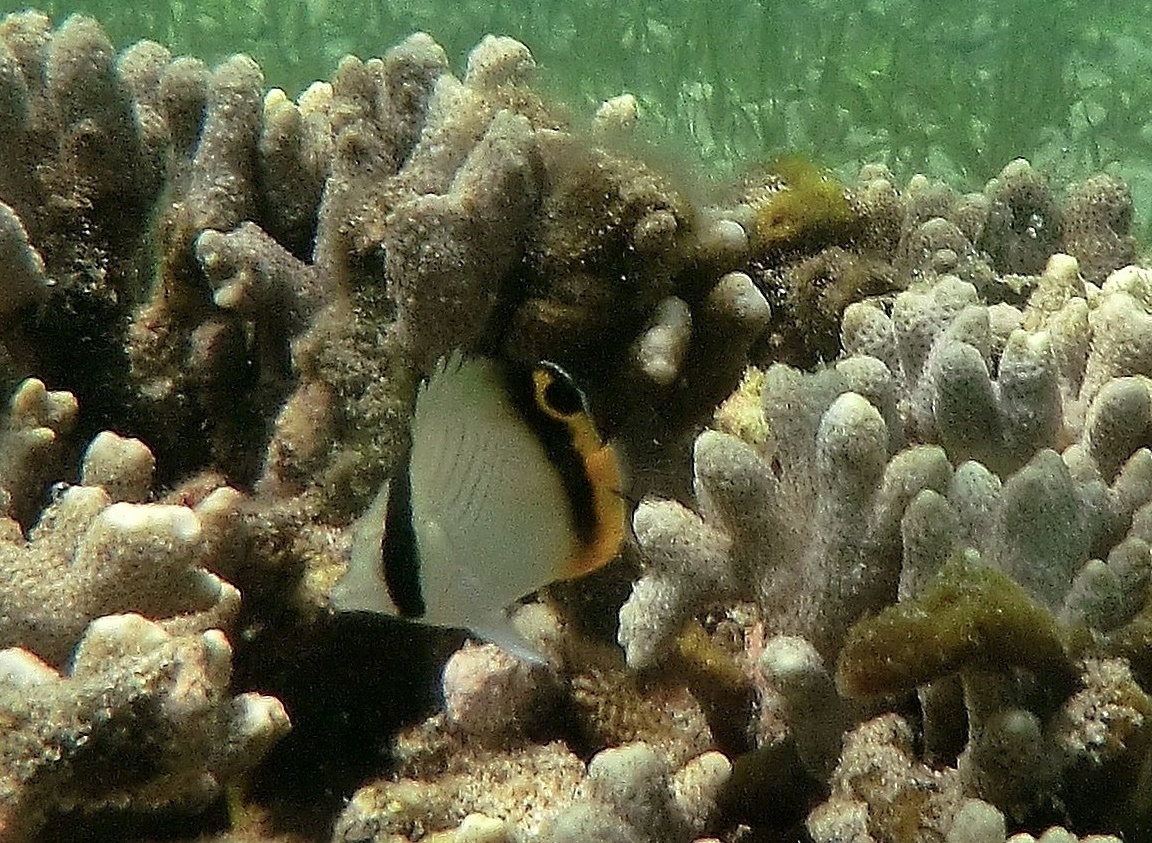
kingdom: Animalia
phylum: Chordata
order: Perciformes
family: Chaetodontidae
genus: Chaetodon
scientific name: Chaetodon vagabundus
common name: Vagabond butterflyfish
